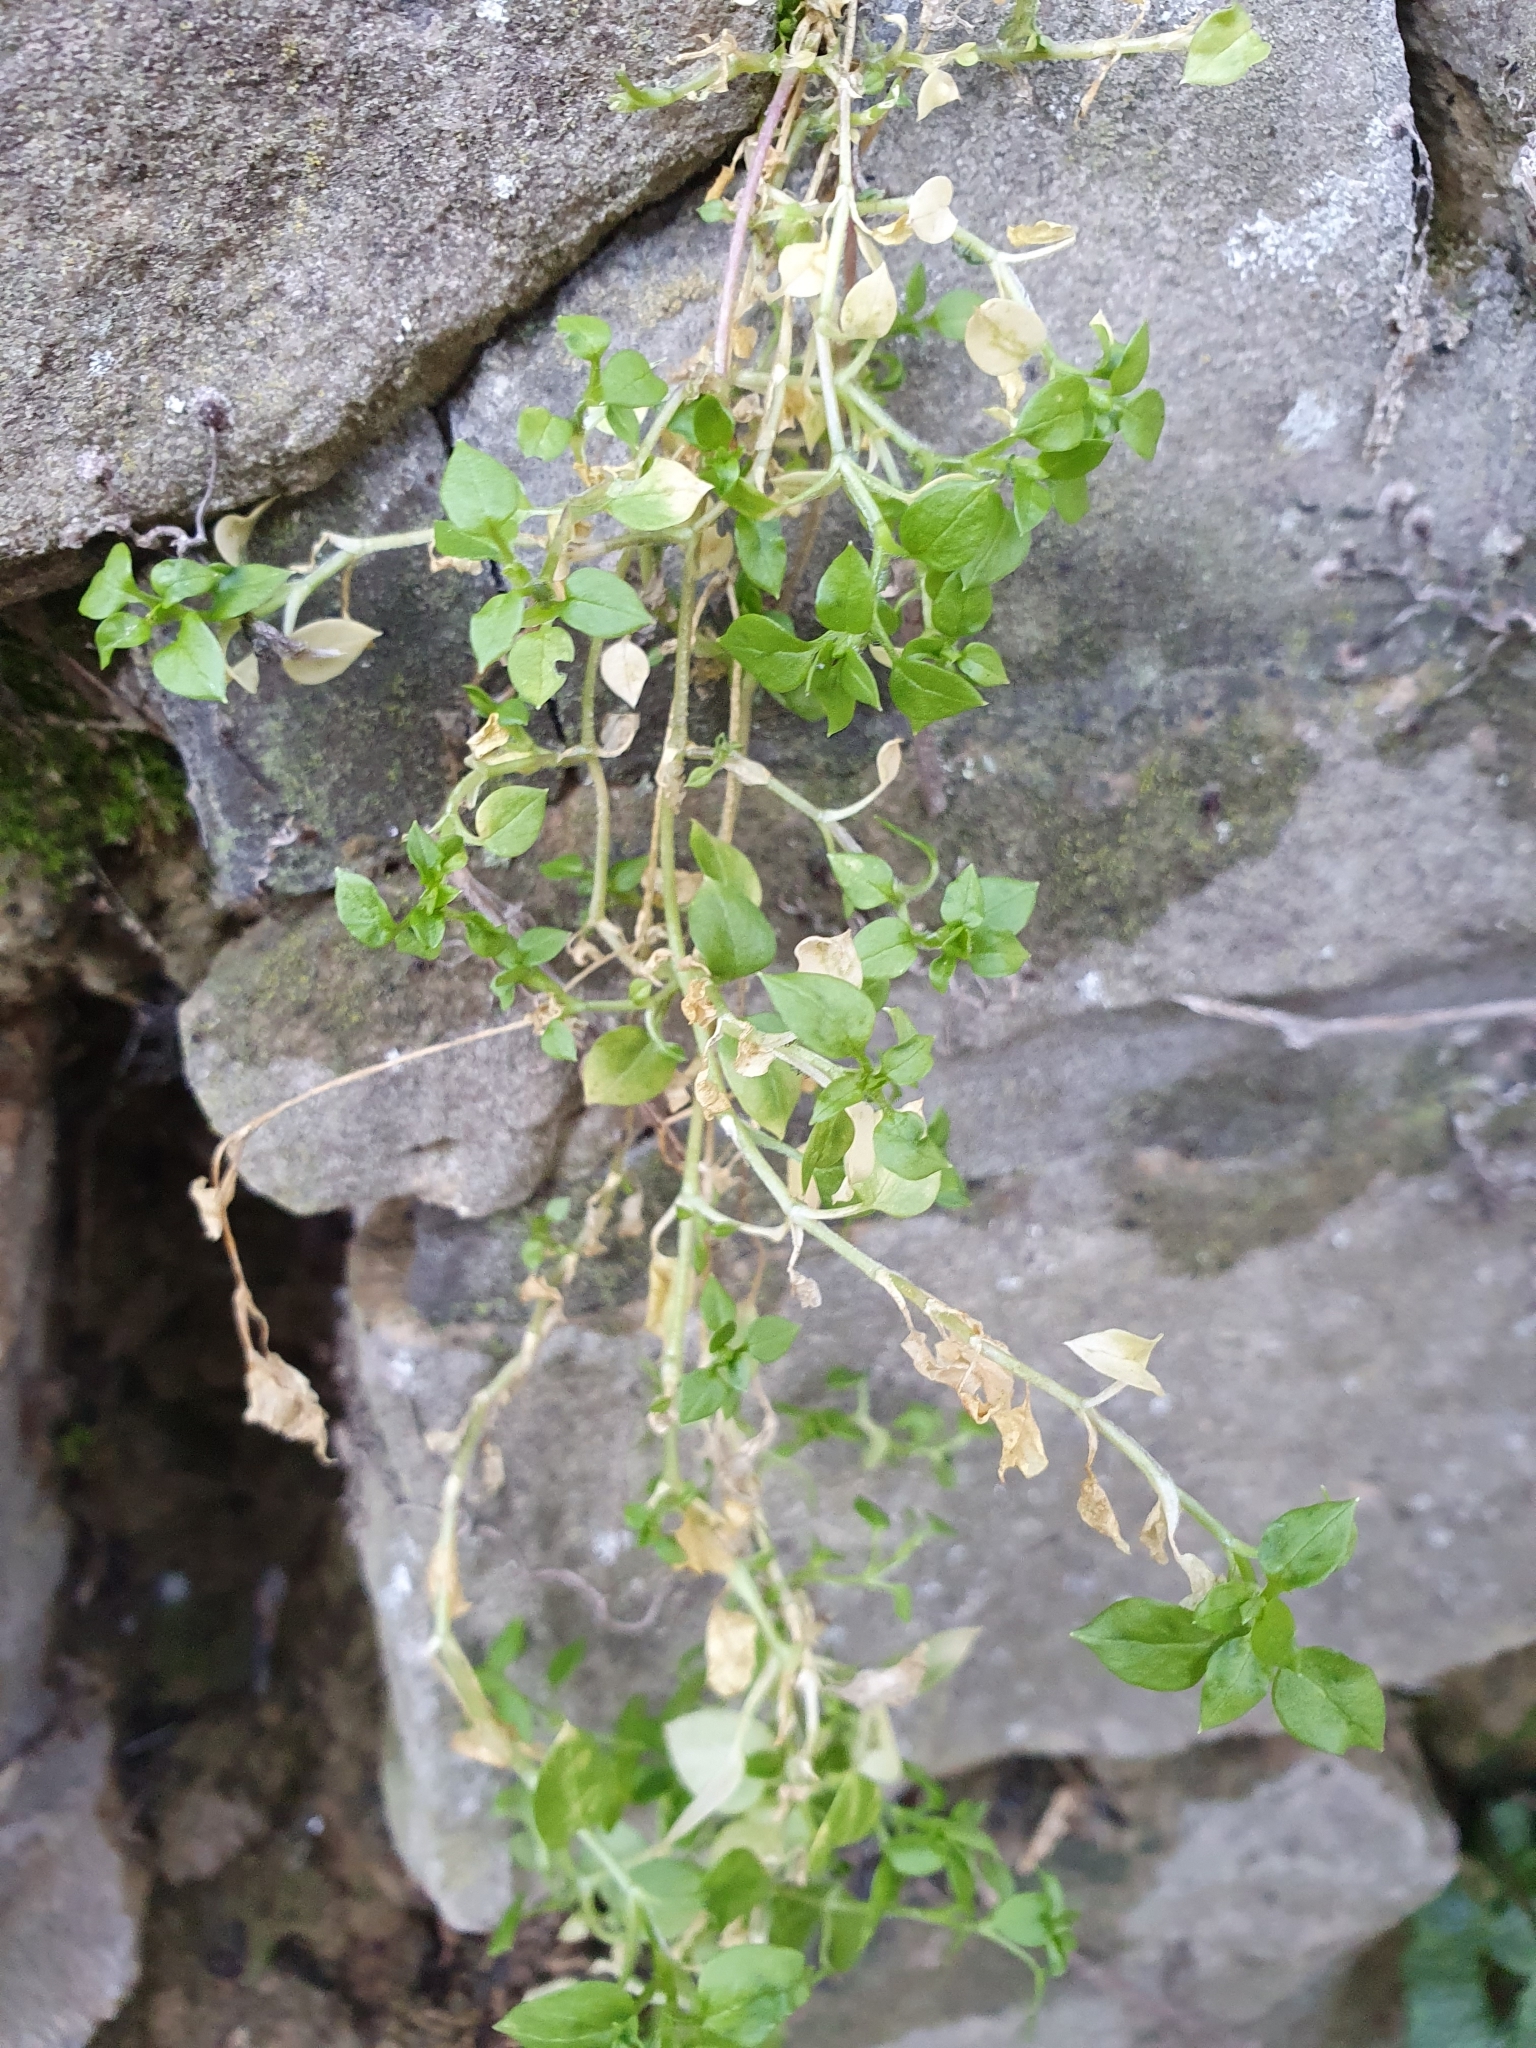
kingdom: Plantae
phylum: Tracheophyta
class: Magnoliopsida
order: Caryophyllales
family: Caryophyllaceae
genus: Stellaria
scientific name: Stellaria media
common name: Common chickweed
